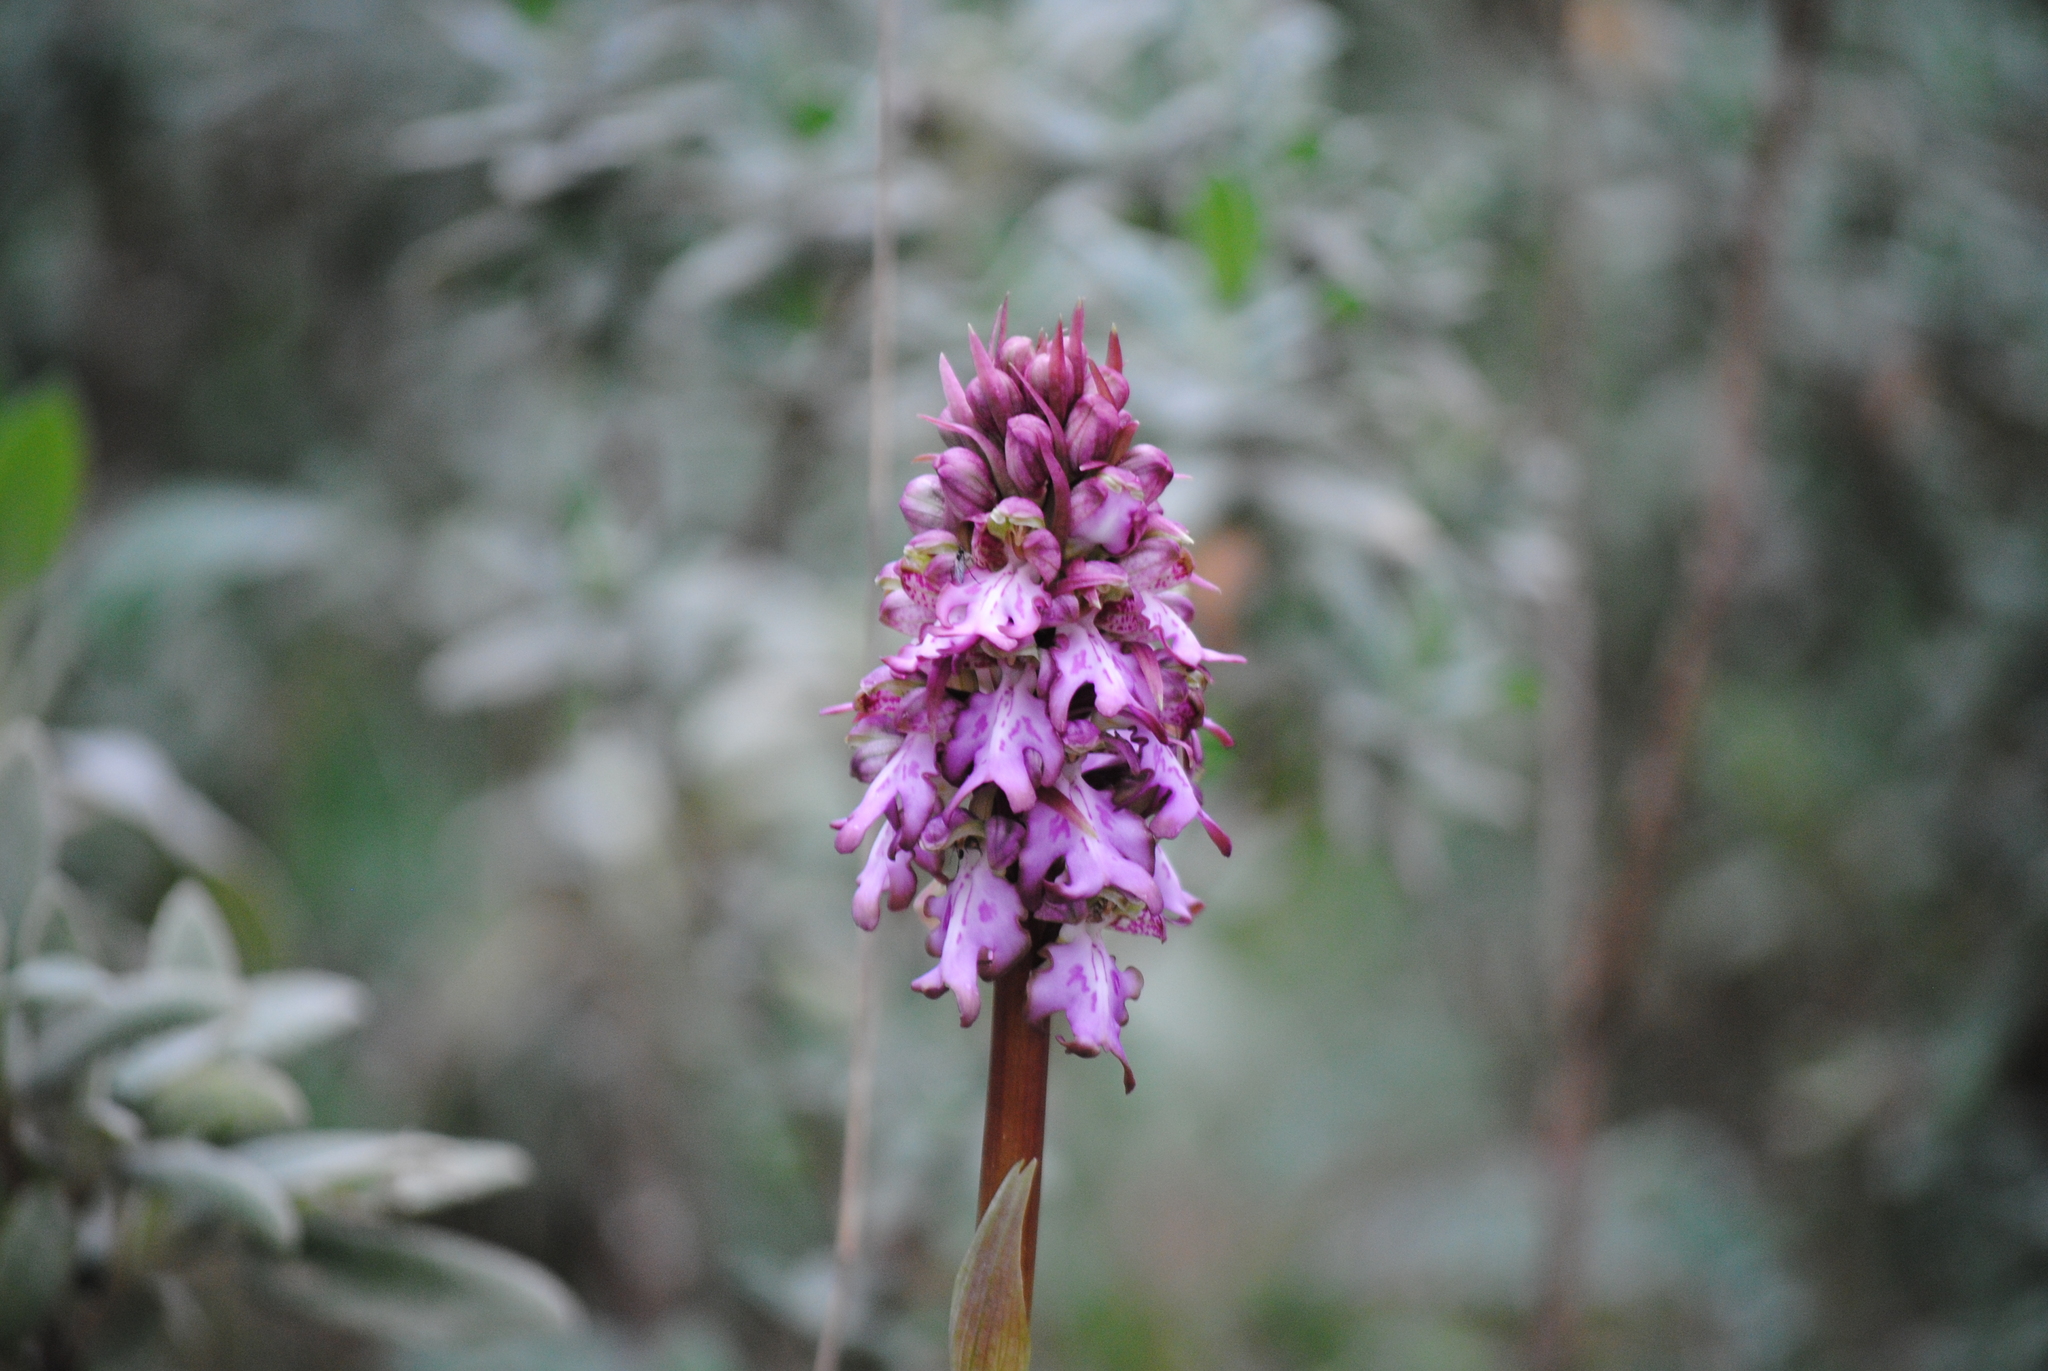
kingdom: Plantae
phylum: Tracheophyta
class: Liliopsida
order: Asparagales
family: Orchidaceae
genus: Himantoglossum
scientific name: Himantoglossum robertianum
